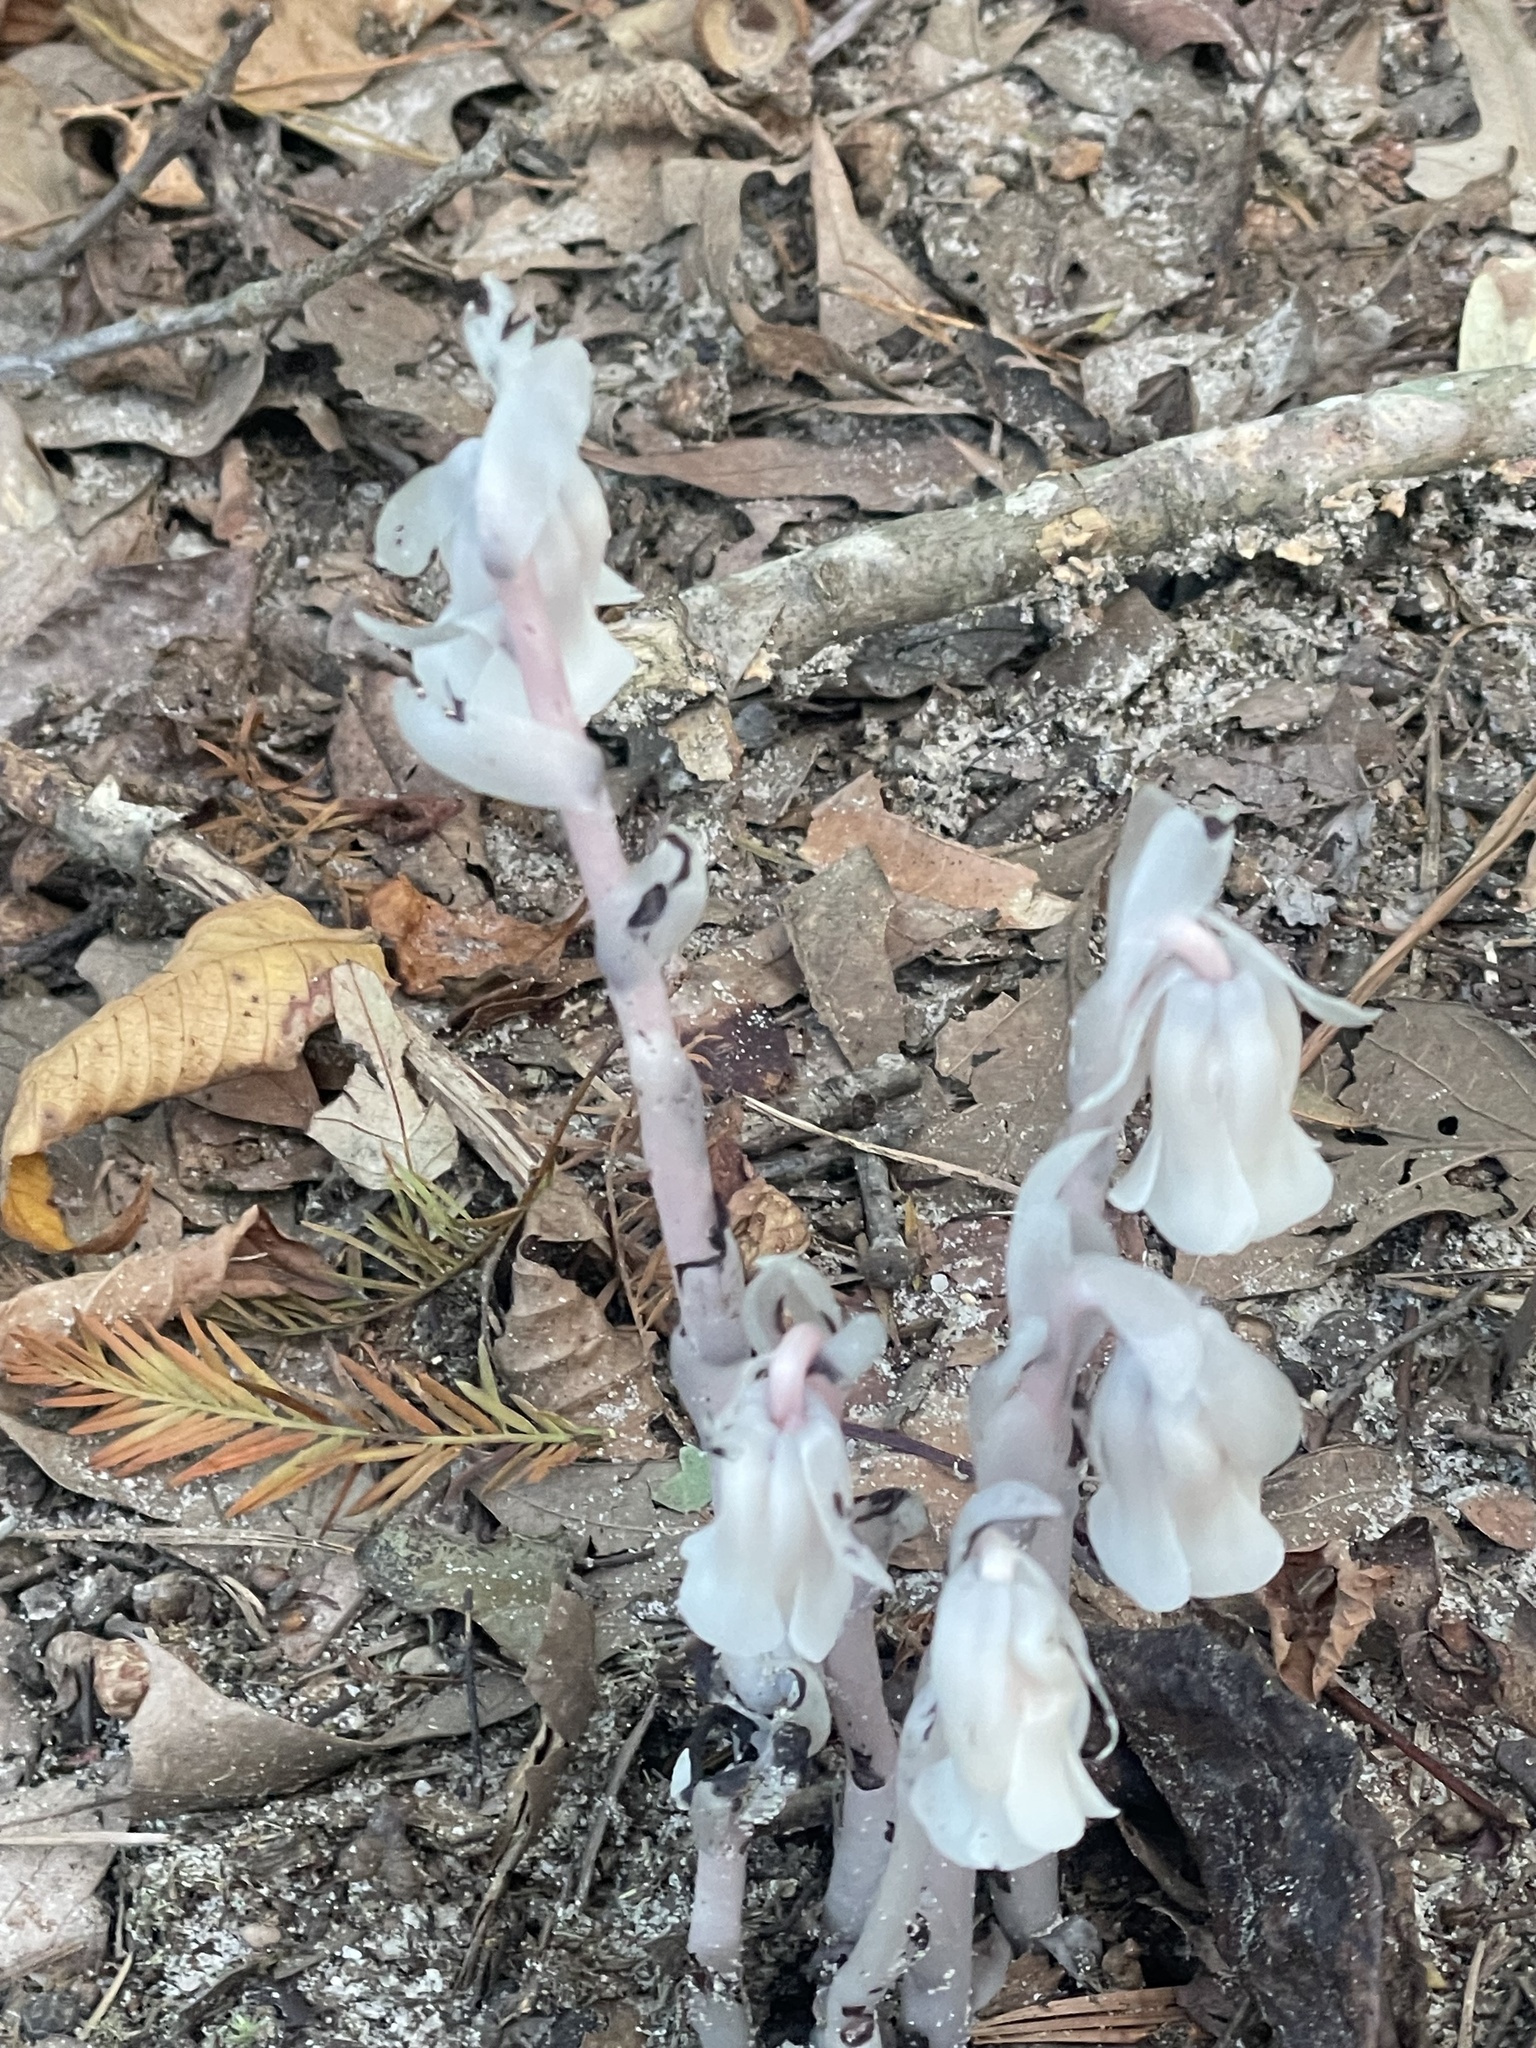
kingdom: Plantae
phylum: Tracheophyta
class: Magnoliopsida
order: Ericales
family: Ericaceae
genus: Monotropa
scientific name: Monotropa uniflora
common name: Convulsion root
